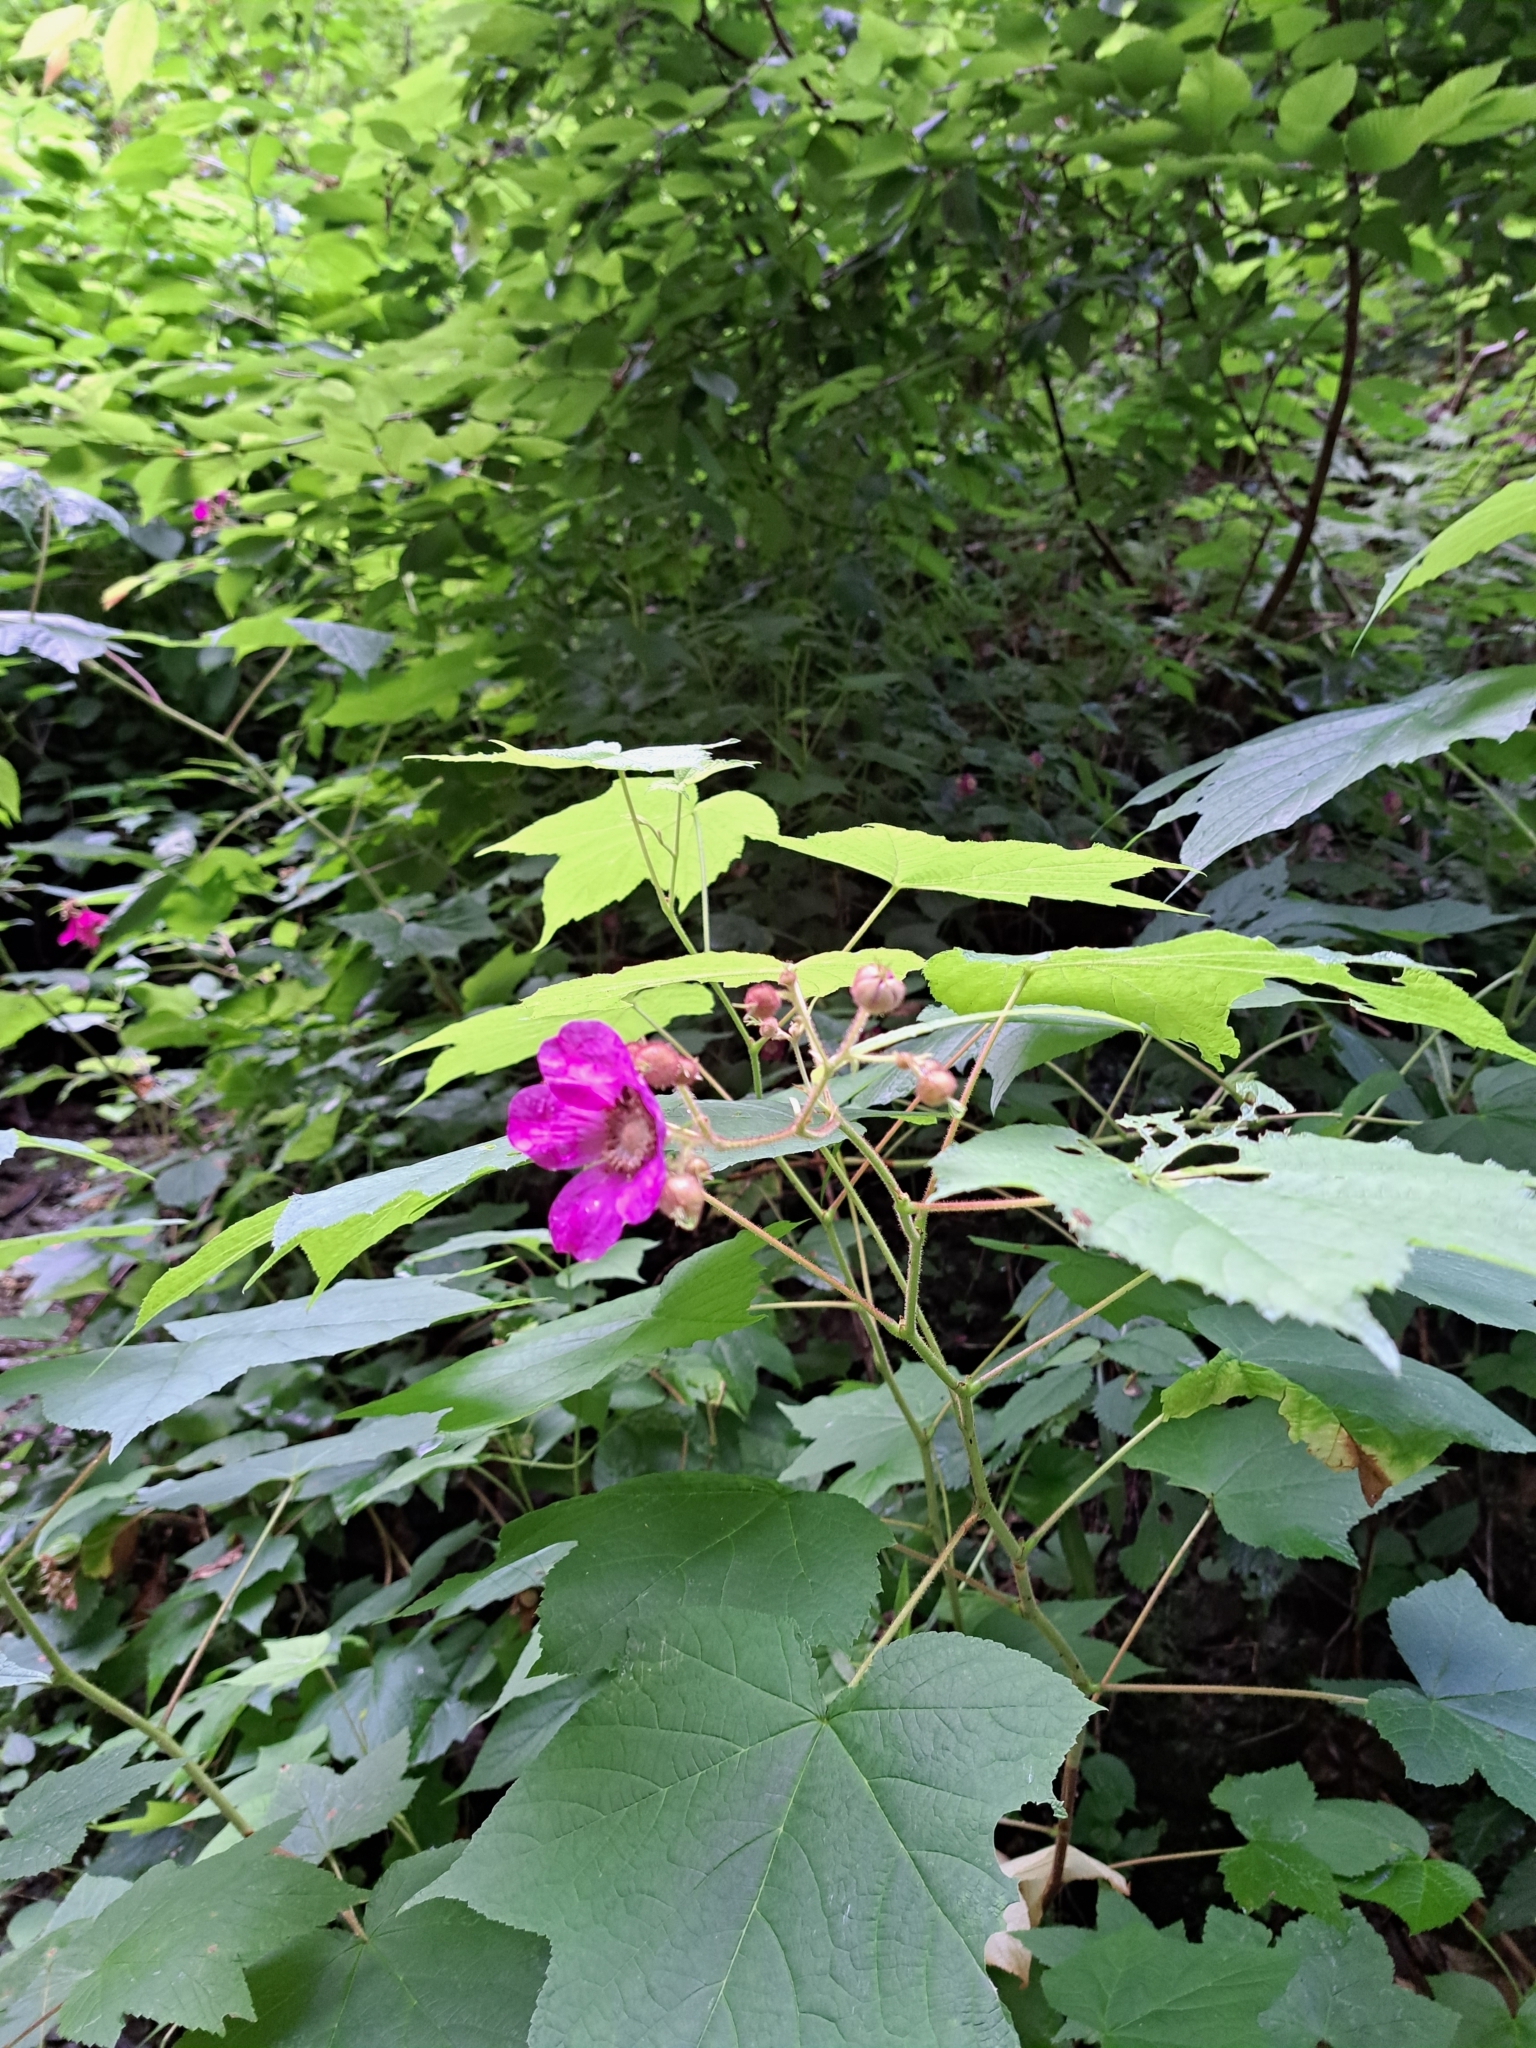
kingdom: Plantae
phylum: Tracheophyta
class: Magnoliopsida
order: Rosales
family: Rosaceae
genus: Rubus
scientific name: Rubus odoratus
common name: Purple-flowered raspberry
